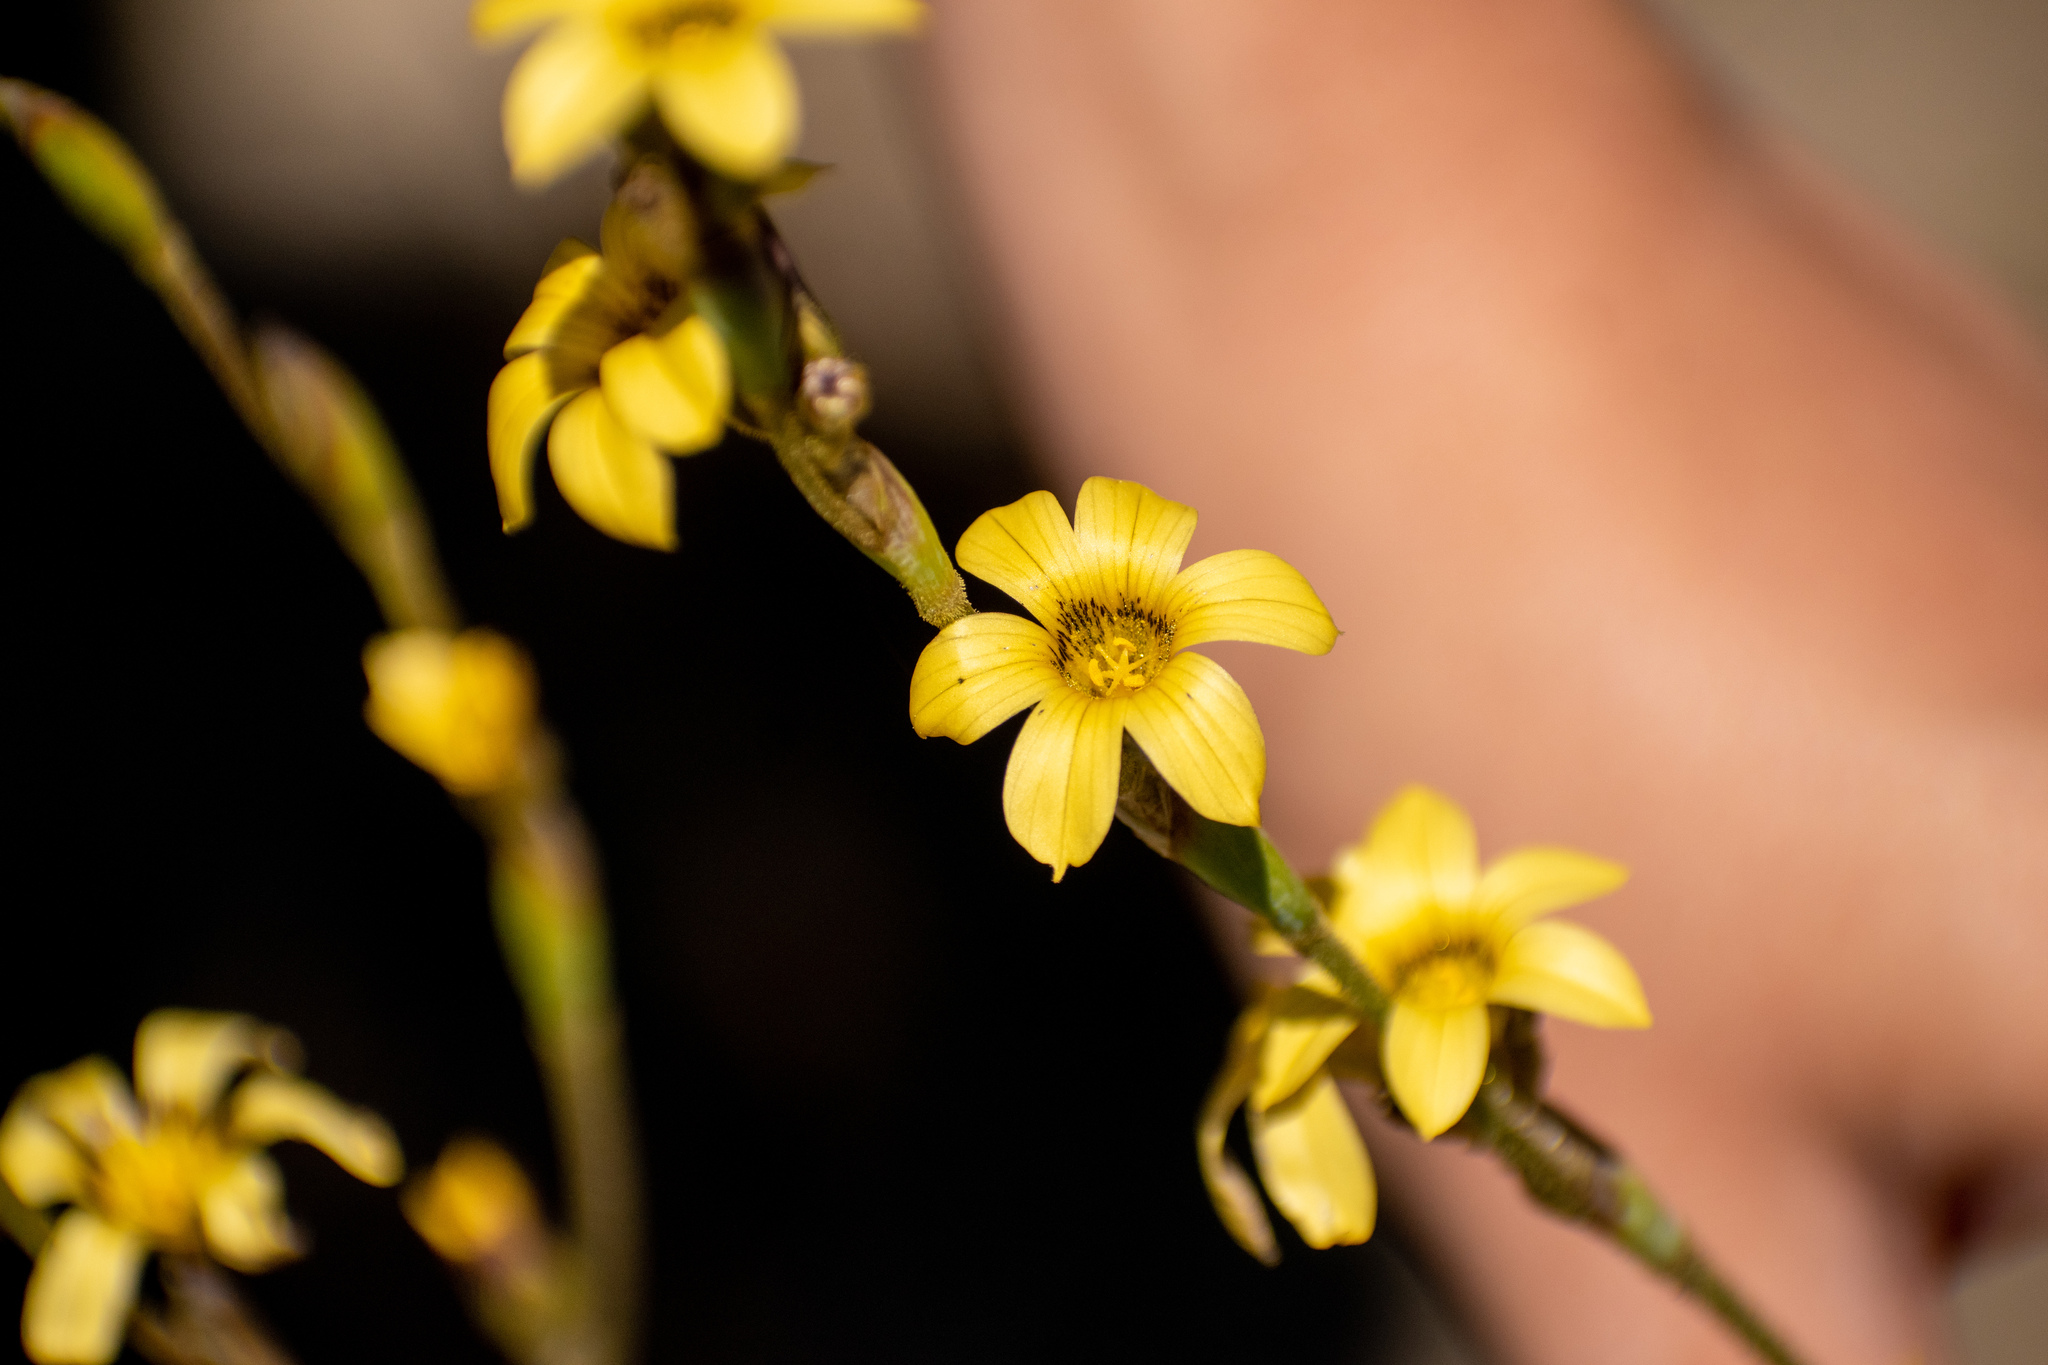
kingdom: Plantae
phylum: Tracheophyta
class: Liliopsida
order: Asparagales
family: Iridaceae
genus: Sisyrinchium
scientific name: Sisyrinchium arenarium
